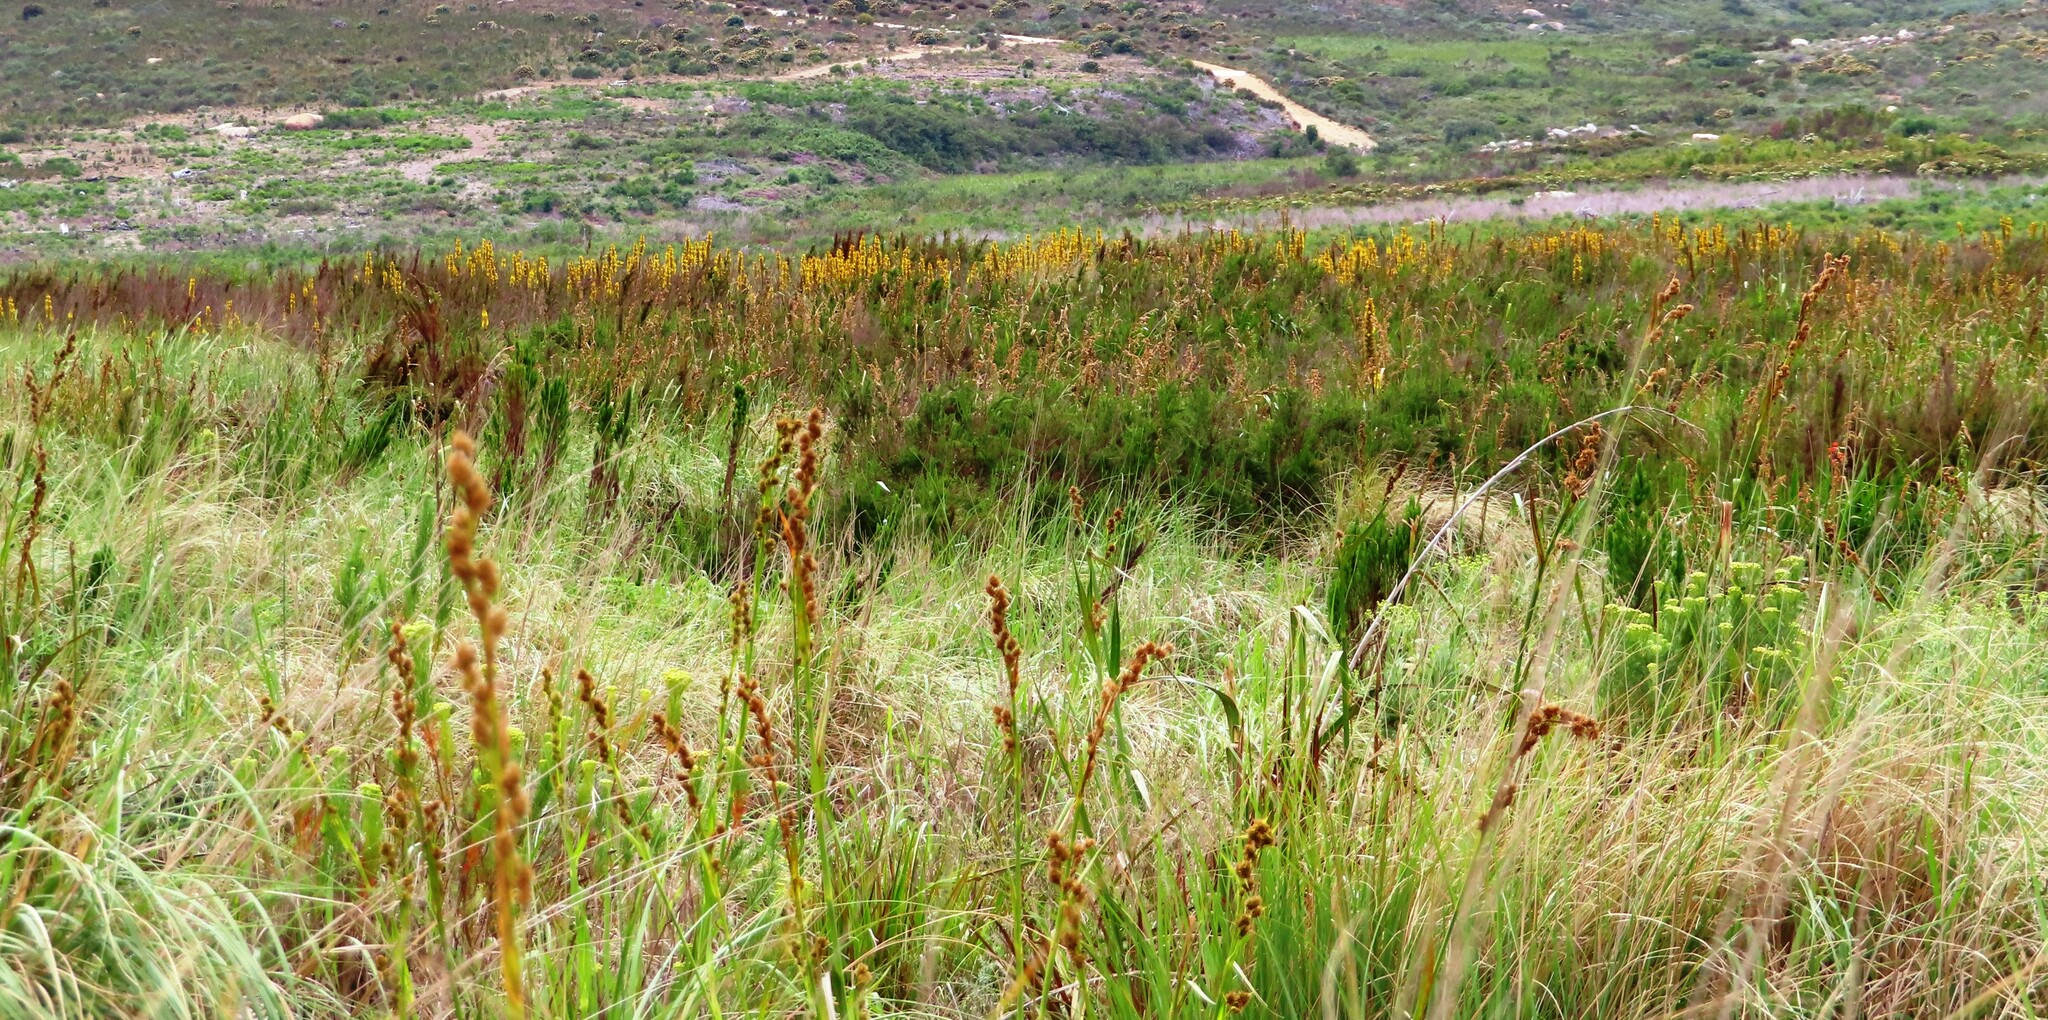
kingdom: Plantae
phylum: Tracheophyta
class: Liliopsida
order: Commelinales
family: Haemodoraceae
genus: Wachendorfia
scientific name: Wachendorfia thyrsiflora
